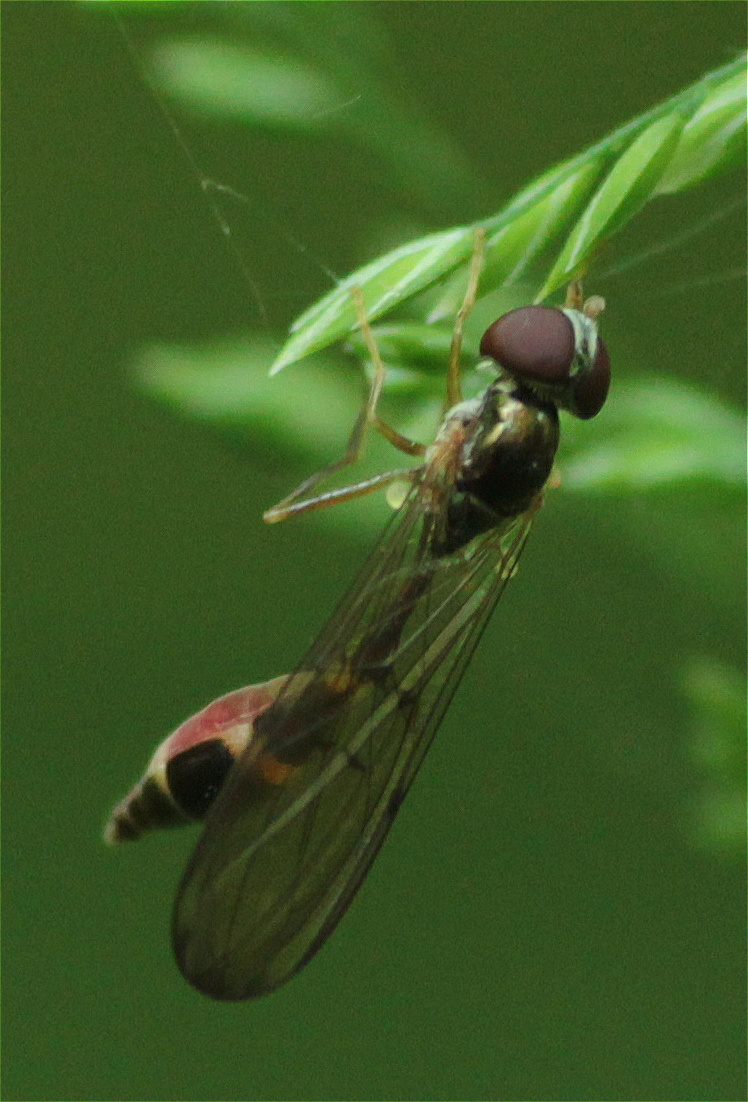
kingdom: Animalia
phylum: Arthropoda
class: Insecta
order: Diptera
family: Syrphidae
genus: Baccha
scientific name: Baccha elongata
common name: Common dainty
